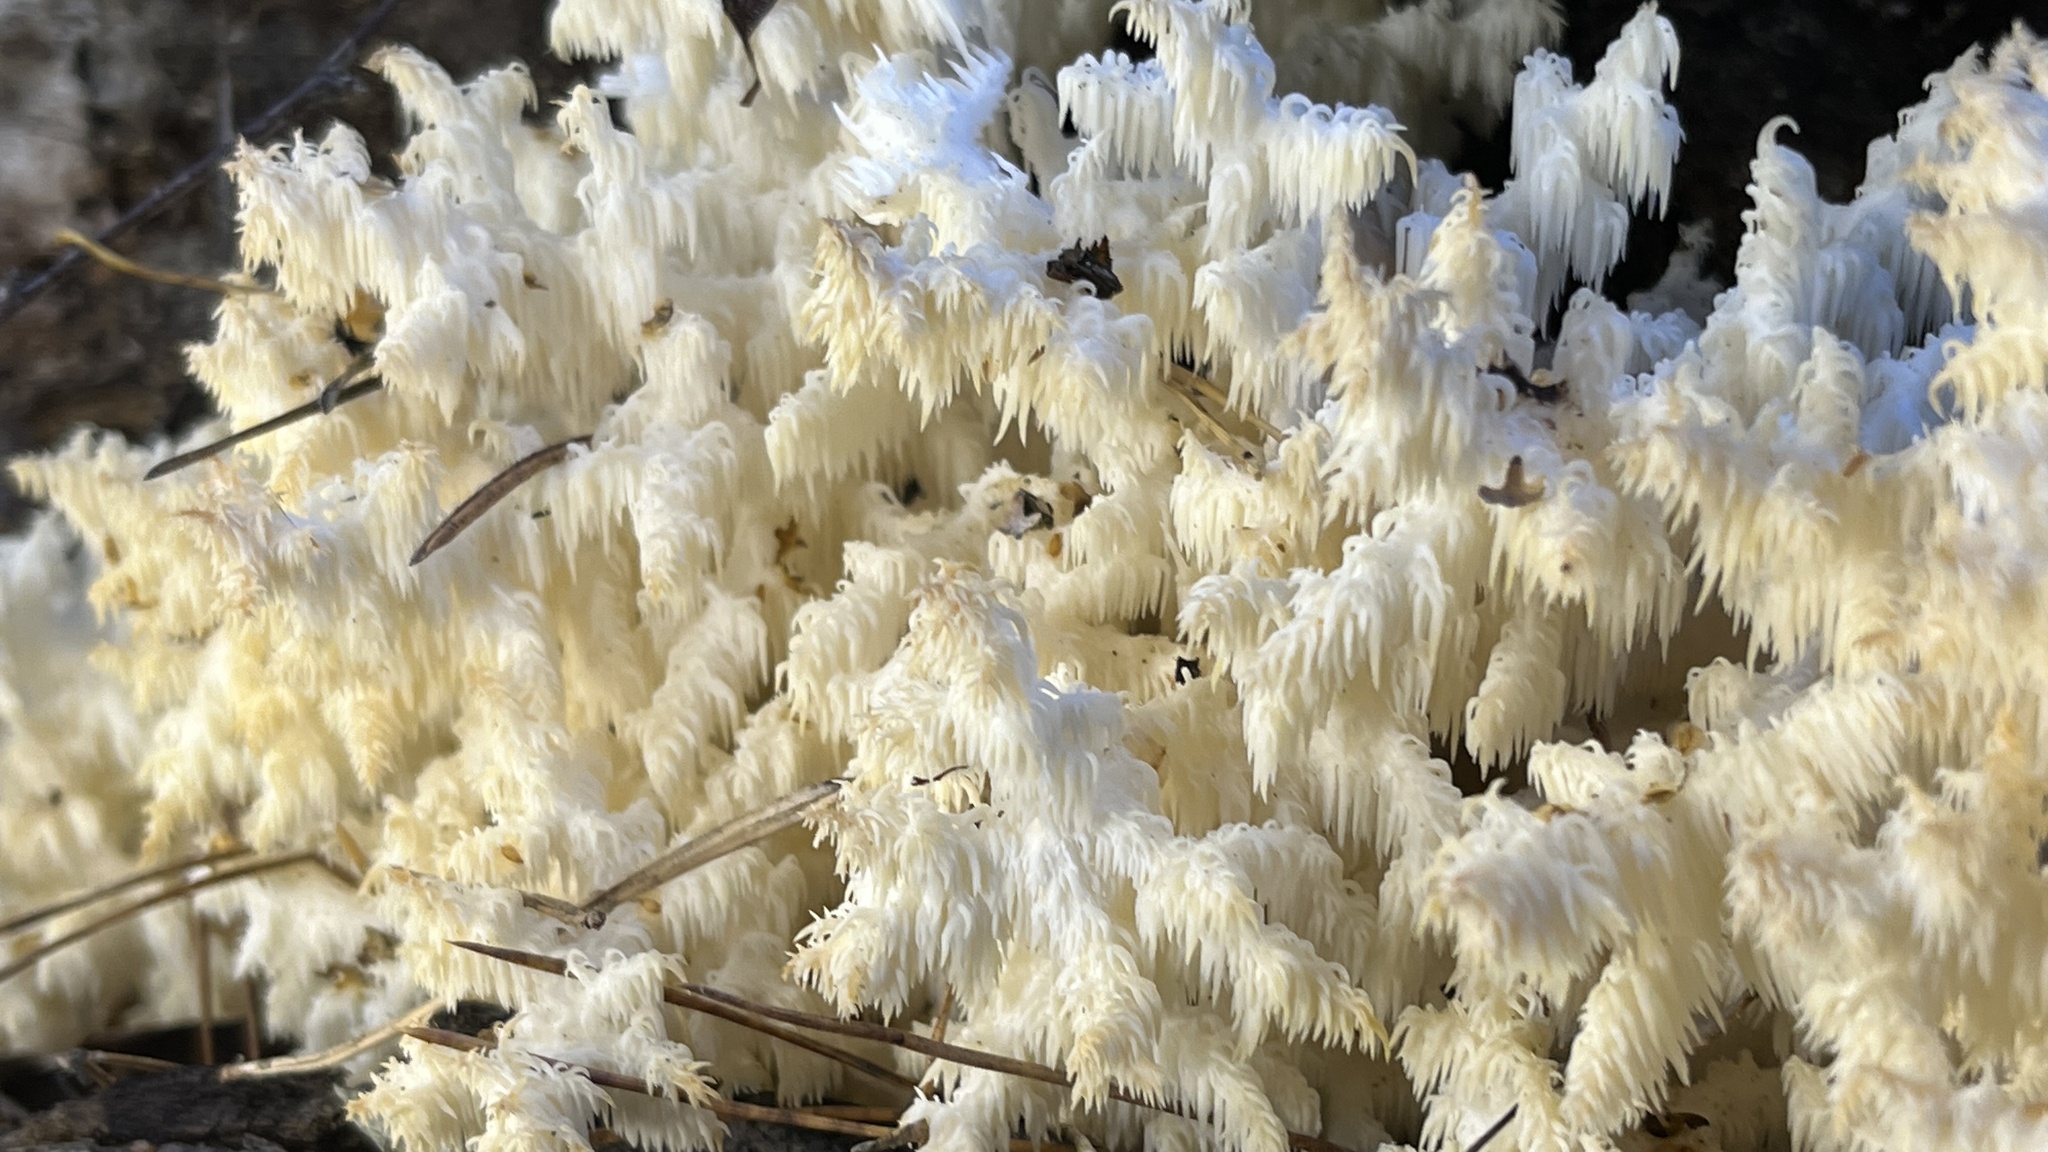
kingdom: Fungi
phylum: Basidiomycota
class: Agaricomycetes
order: Russulales
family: Hericiaceae
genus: Hericium
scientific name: Hericium coralloides
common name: Coral tooth
